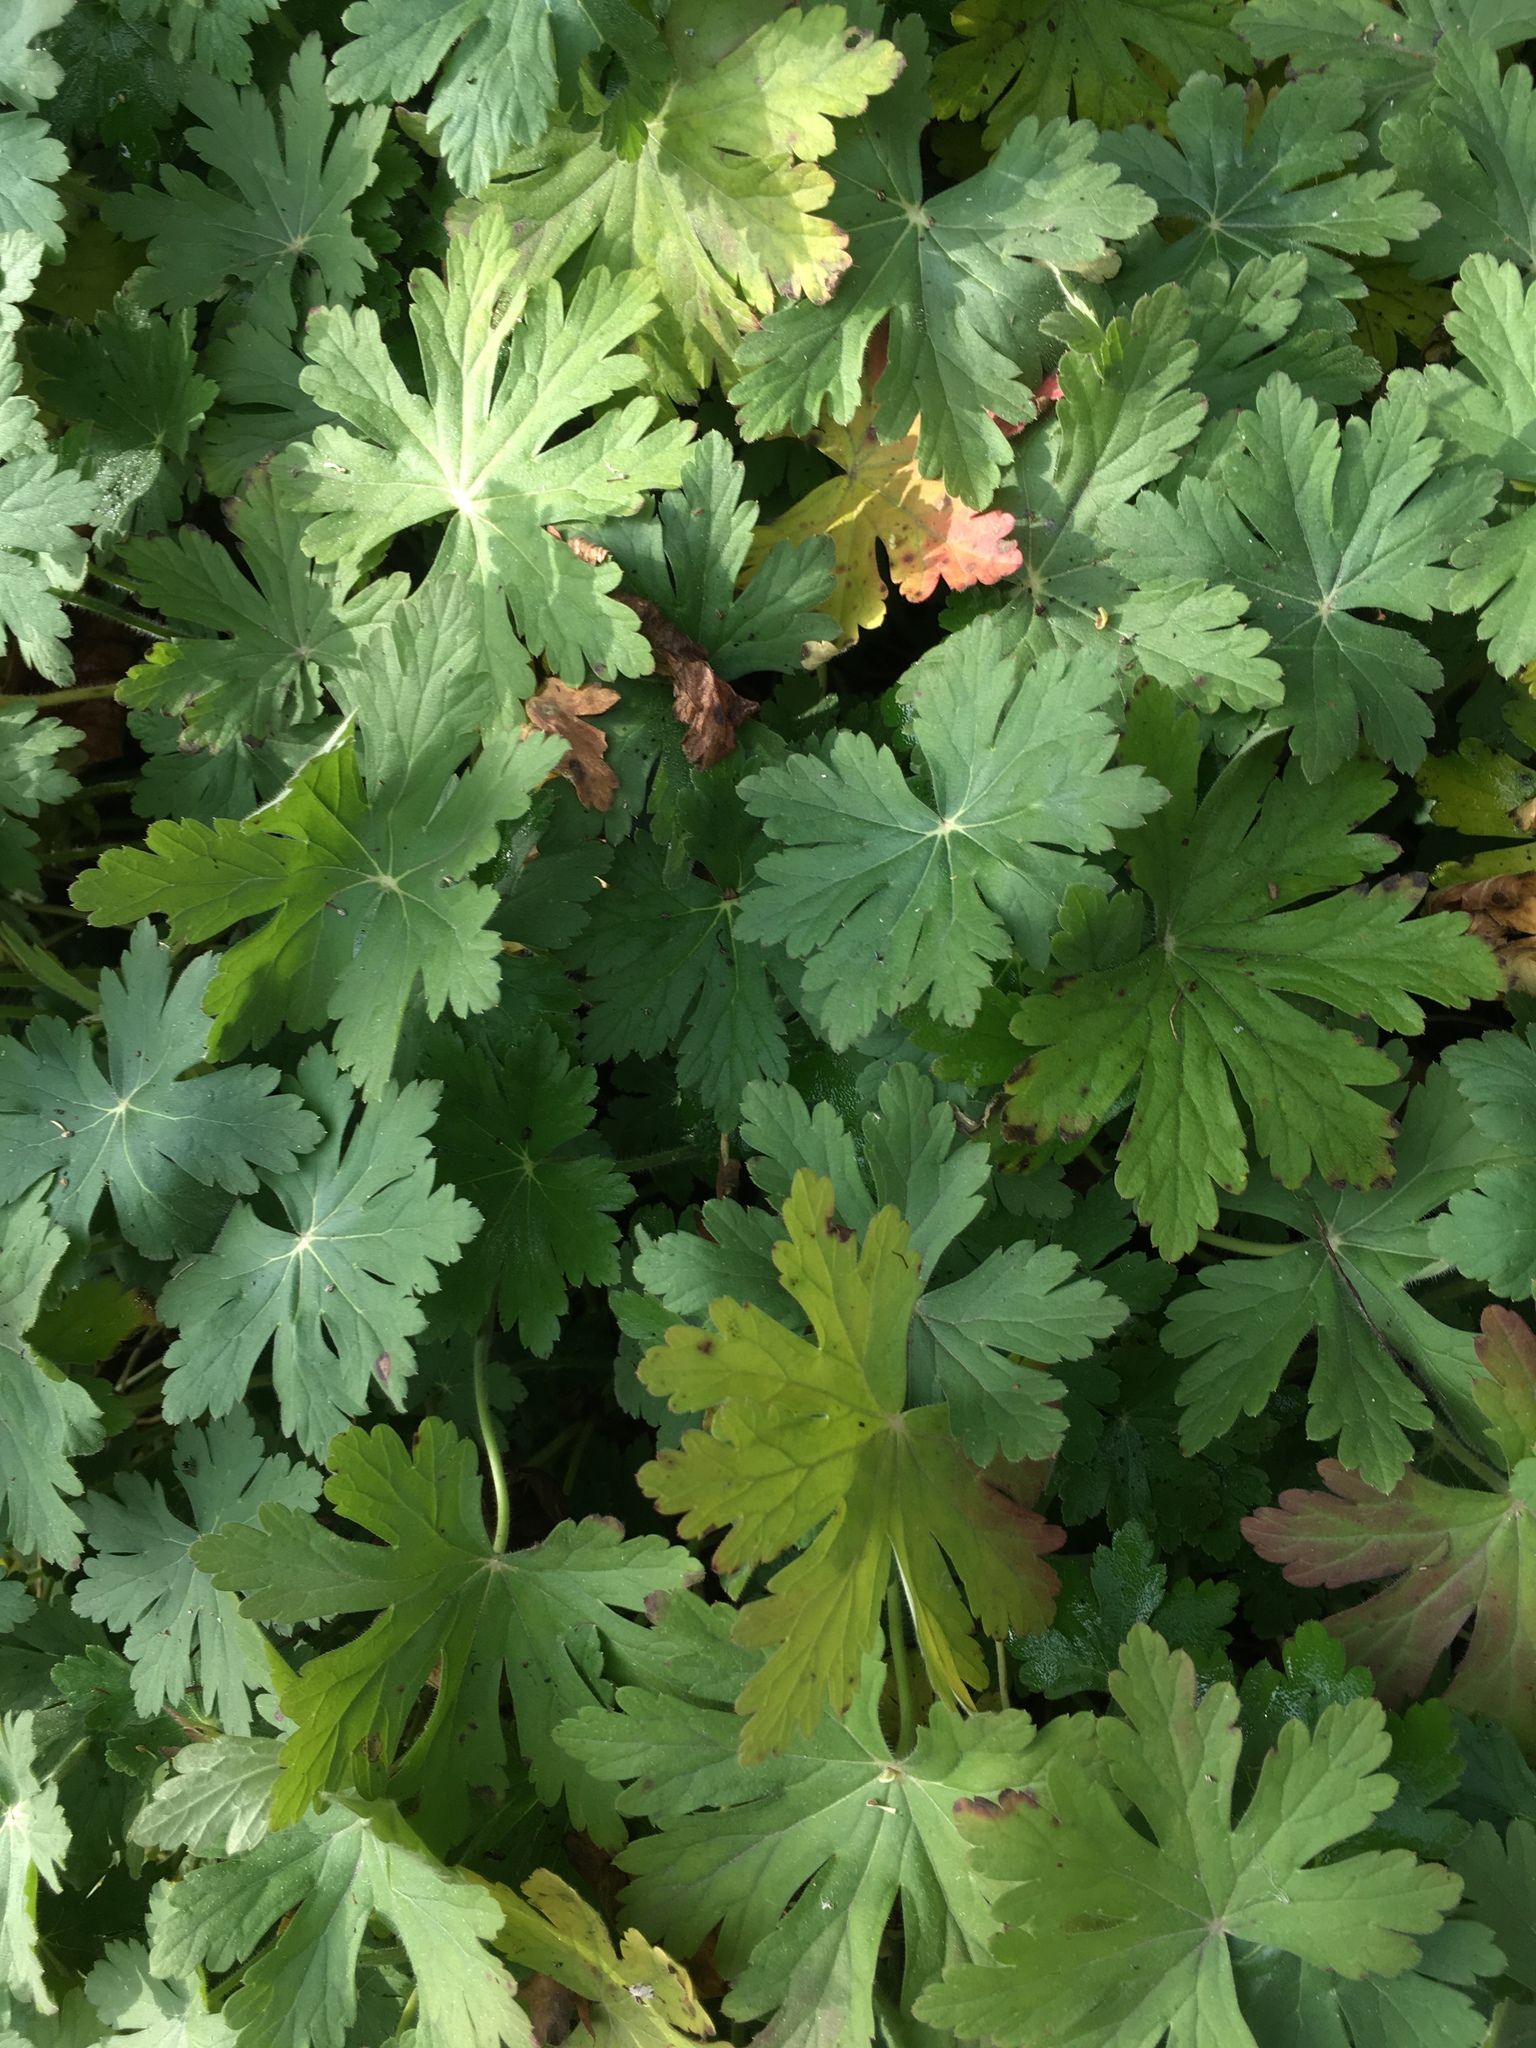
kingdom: Plantae
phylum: Tracheophyta
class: Magnoliopsida
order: Geraniales
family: Geraniaceae
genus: Geranium
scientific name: Geranium macrorrhizum
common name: Rock crane's-bill
